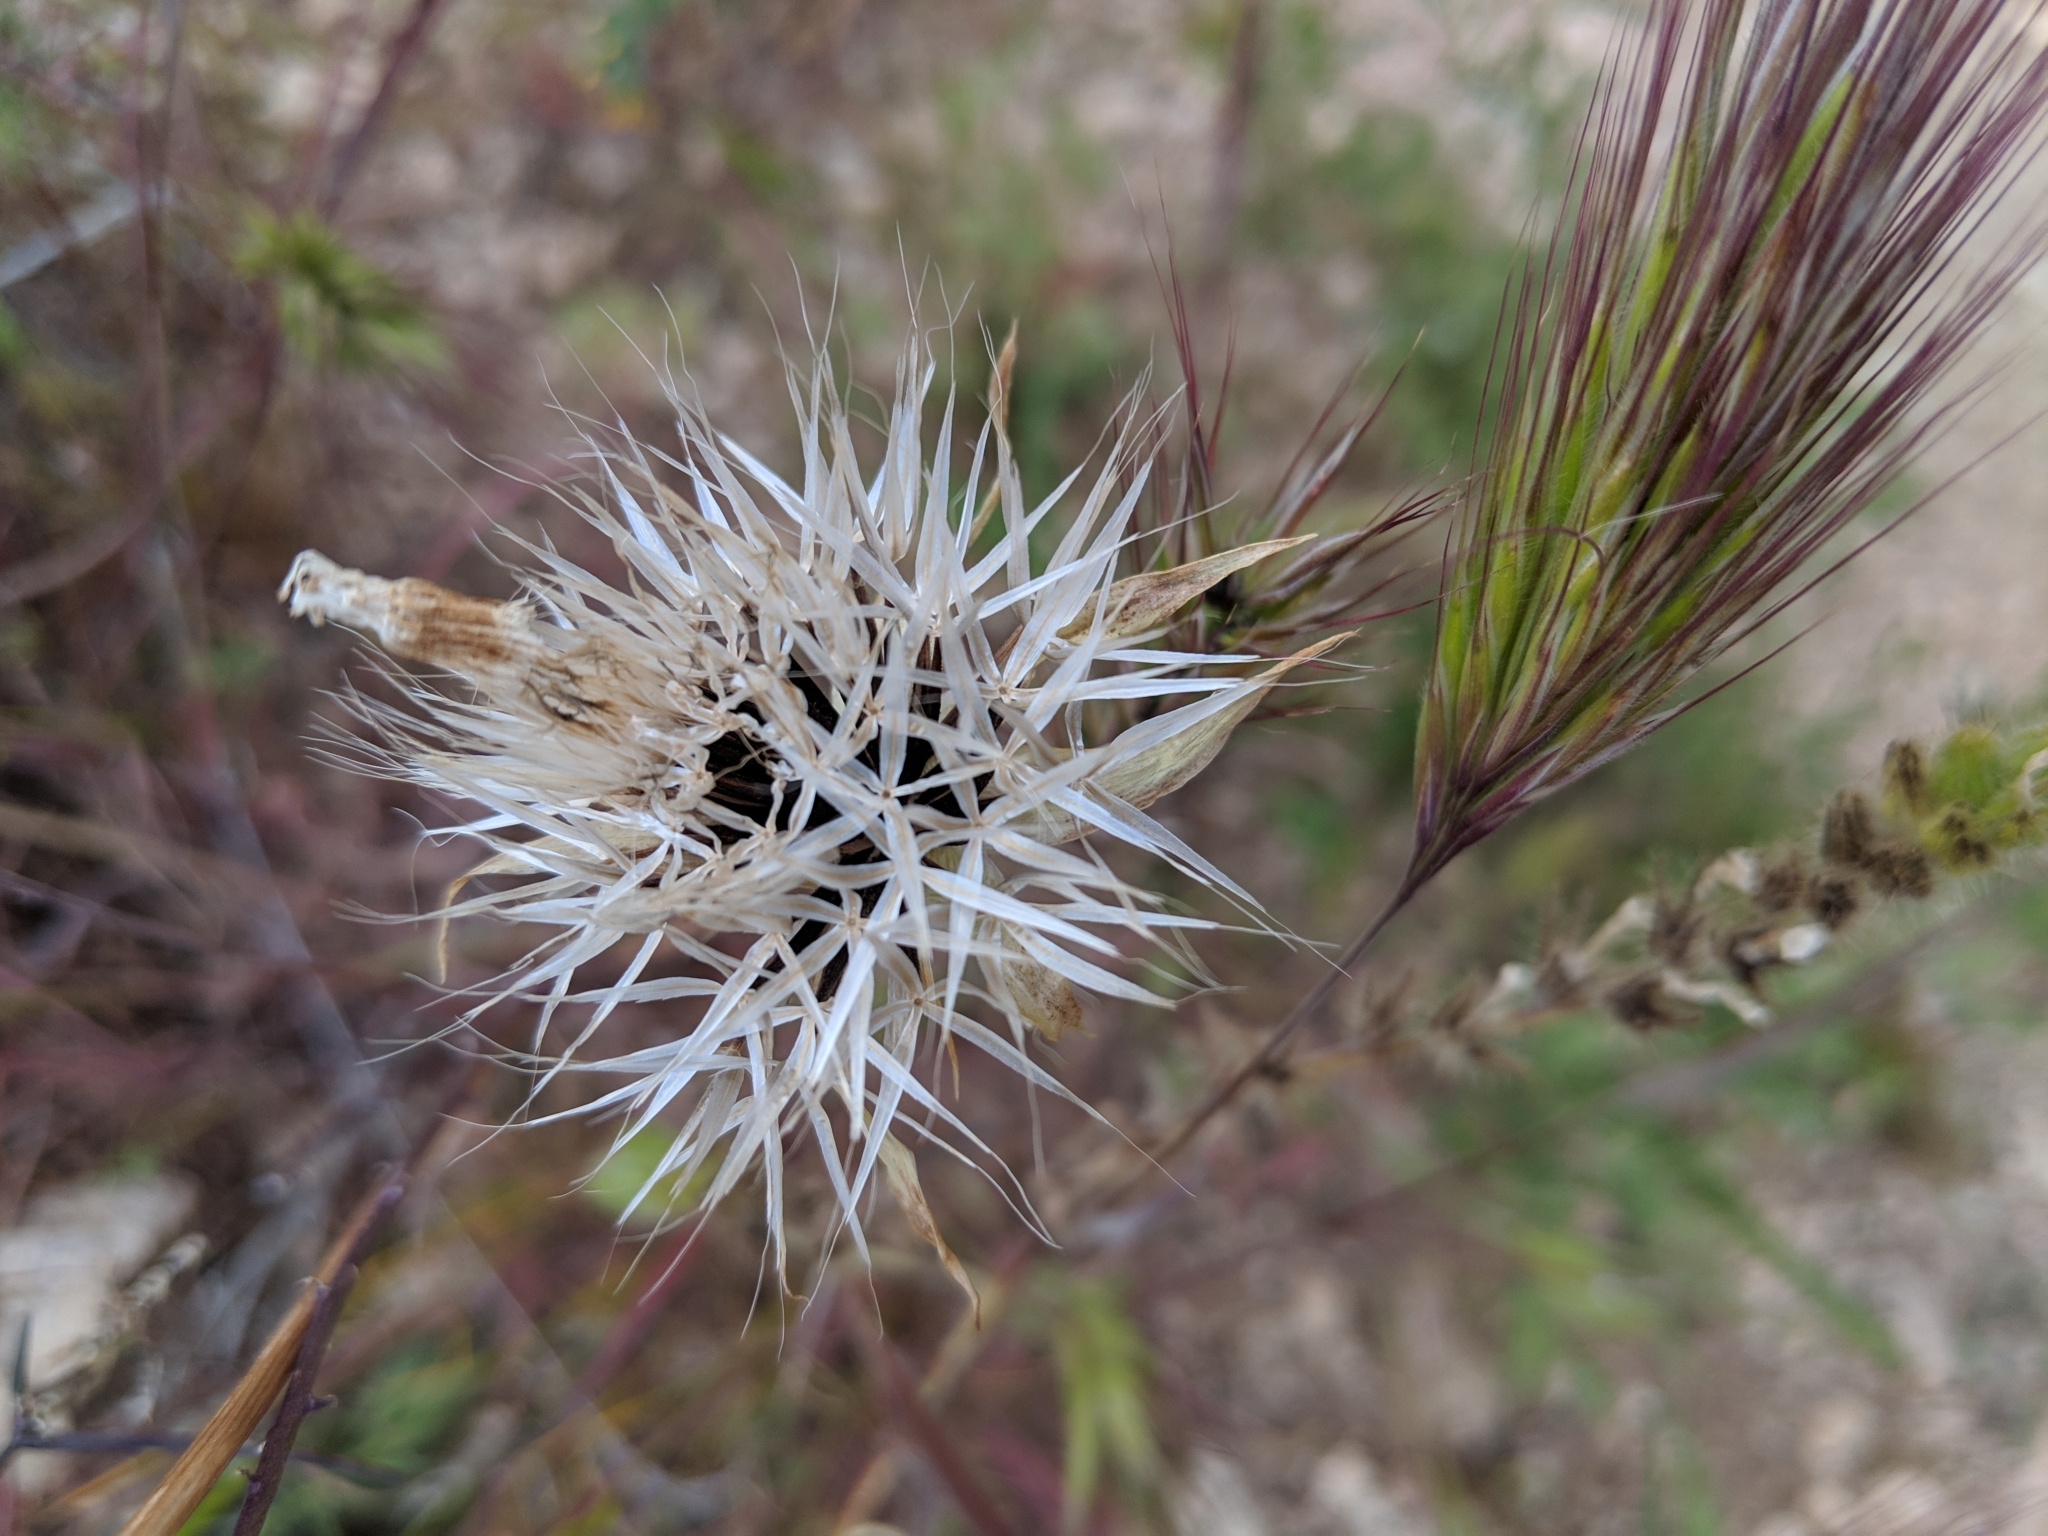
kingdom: Plantae
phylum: Tracheophyta
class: Magnoliopsida
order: Asterales
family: Asteraceae
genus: Microseris
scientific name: Microseris lindleyi
